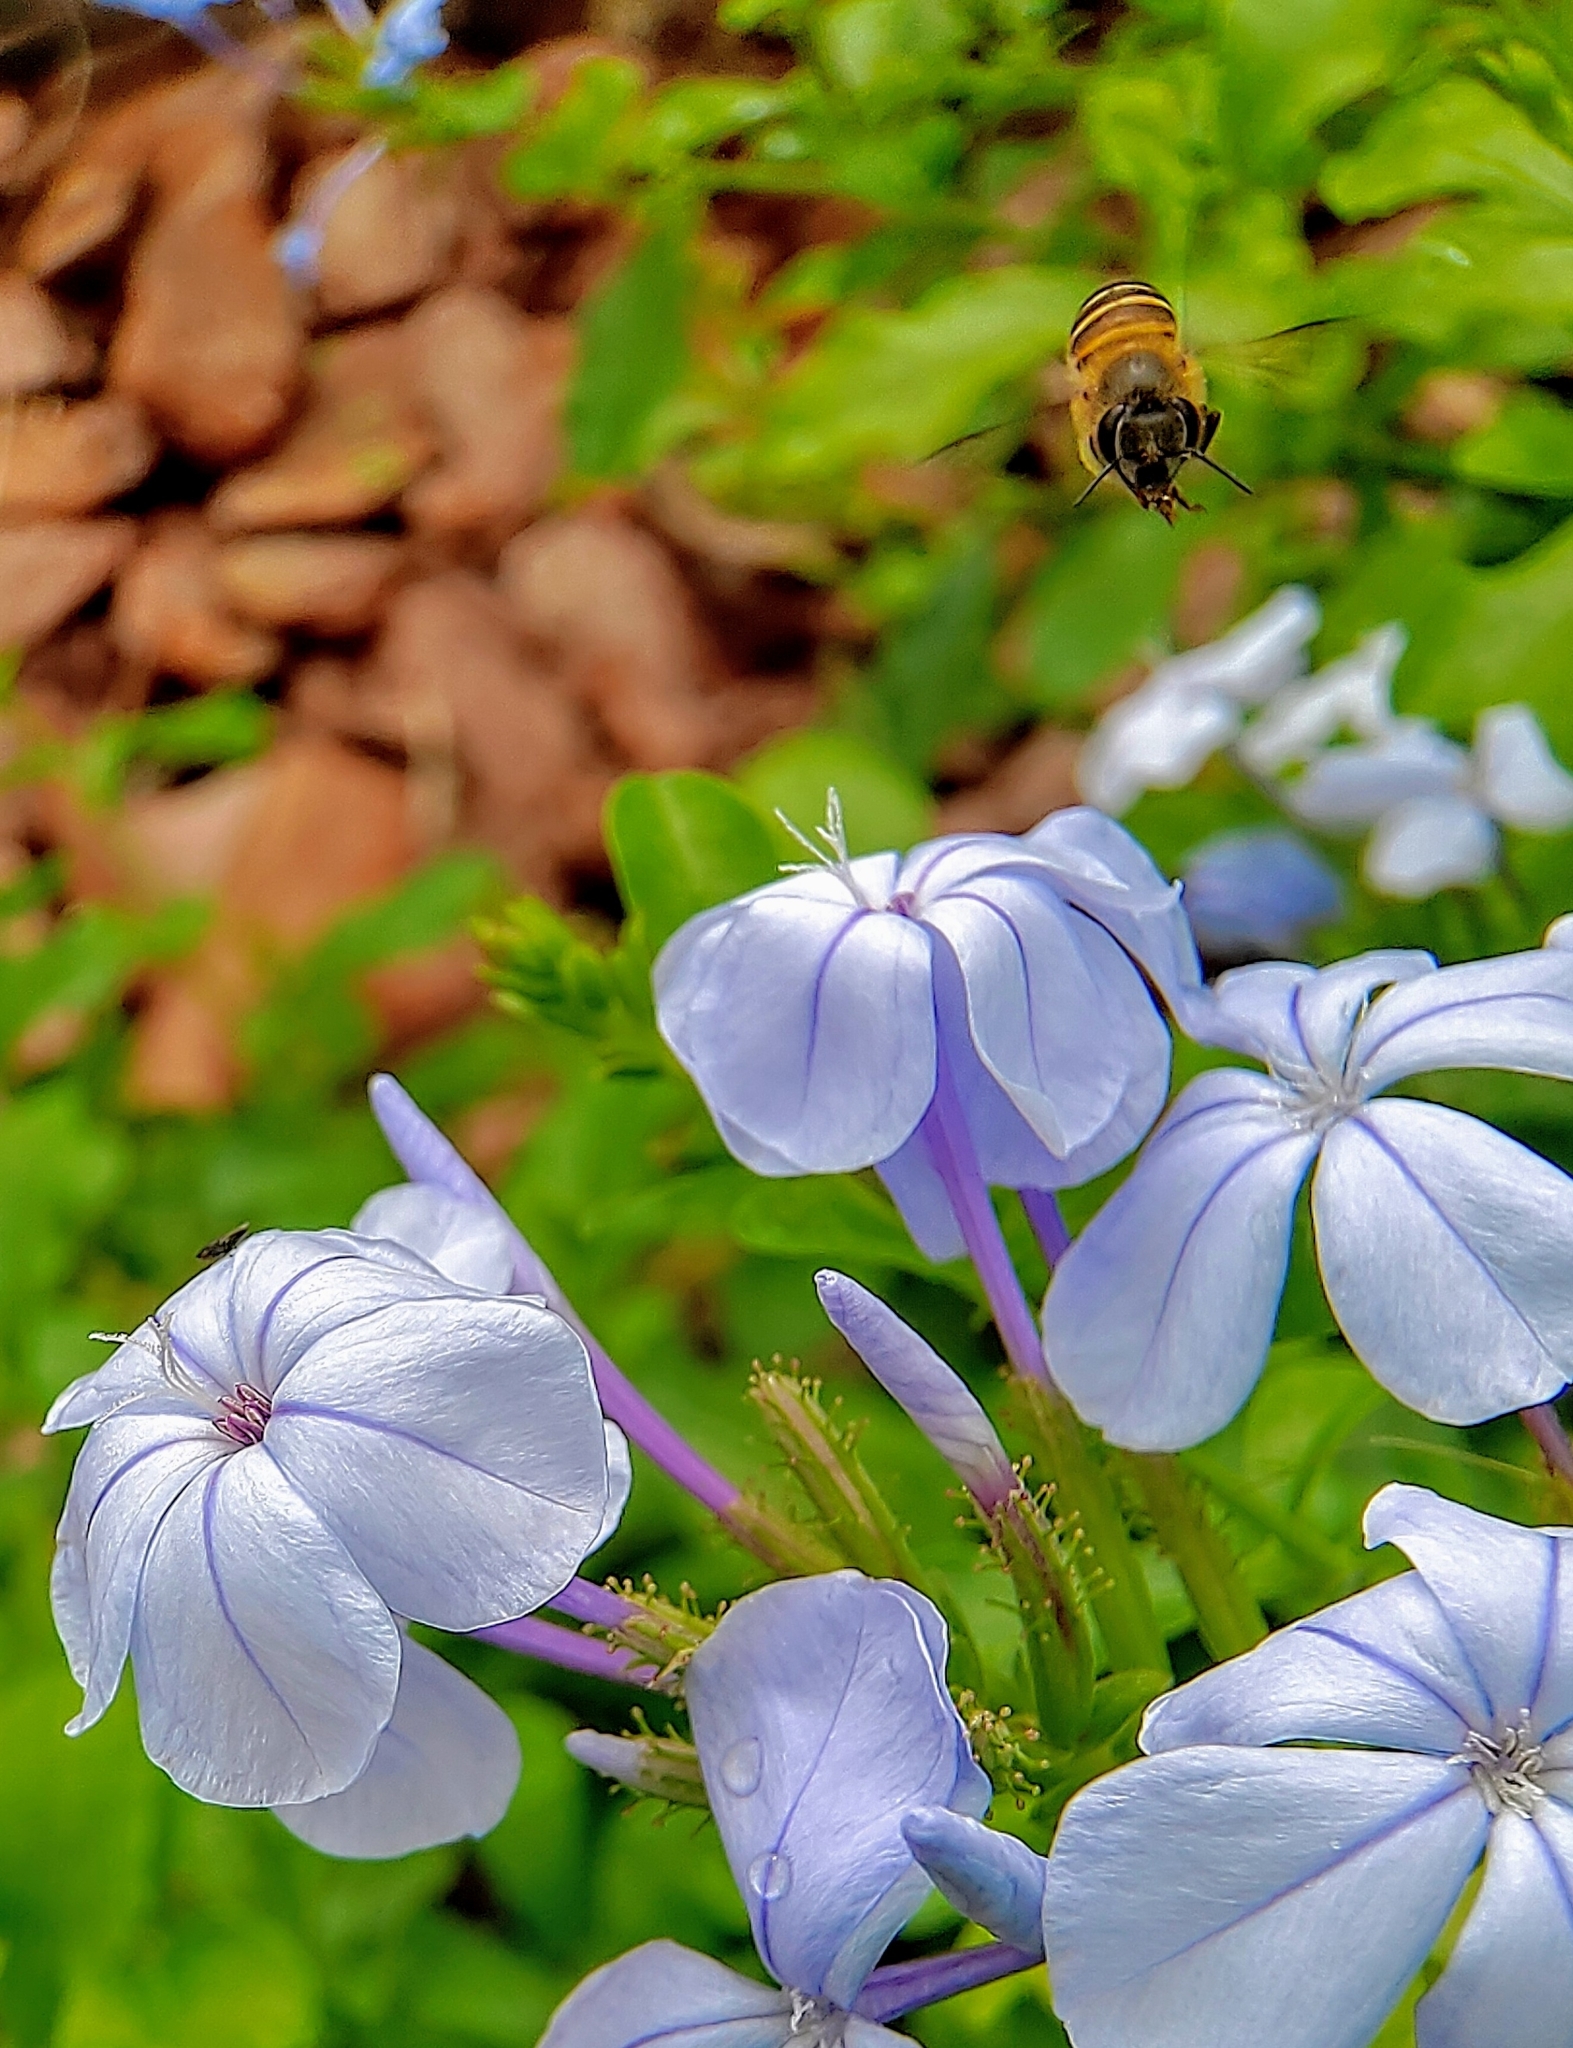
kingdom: Animalia
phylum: Arthropoda
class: Insecta
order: Hymenoptera
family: Apidae
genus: Apis
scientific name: Apis cerana
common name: Honey bee
